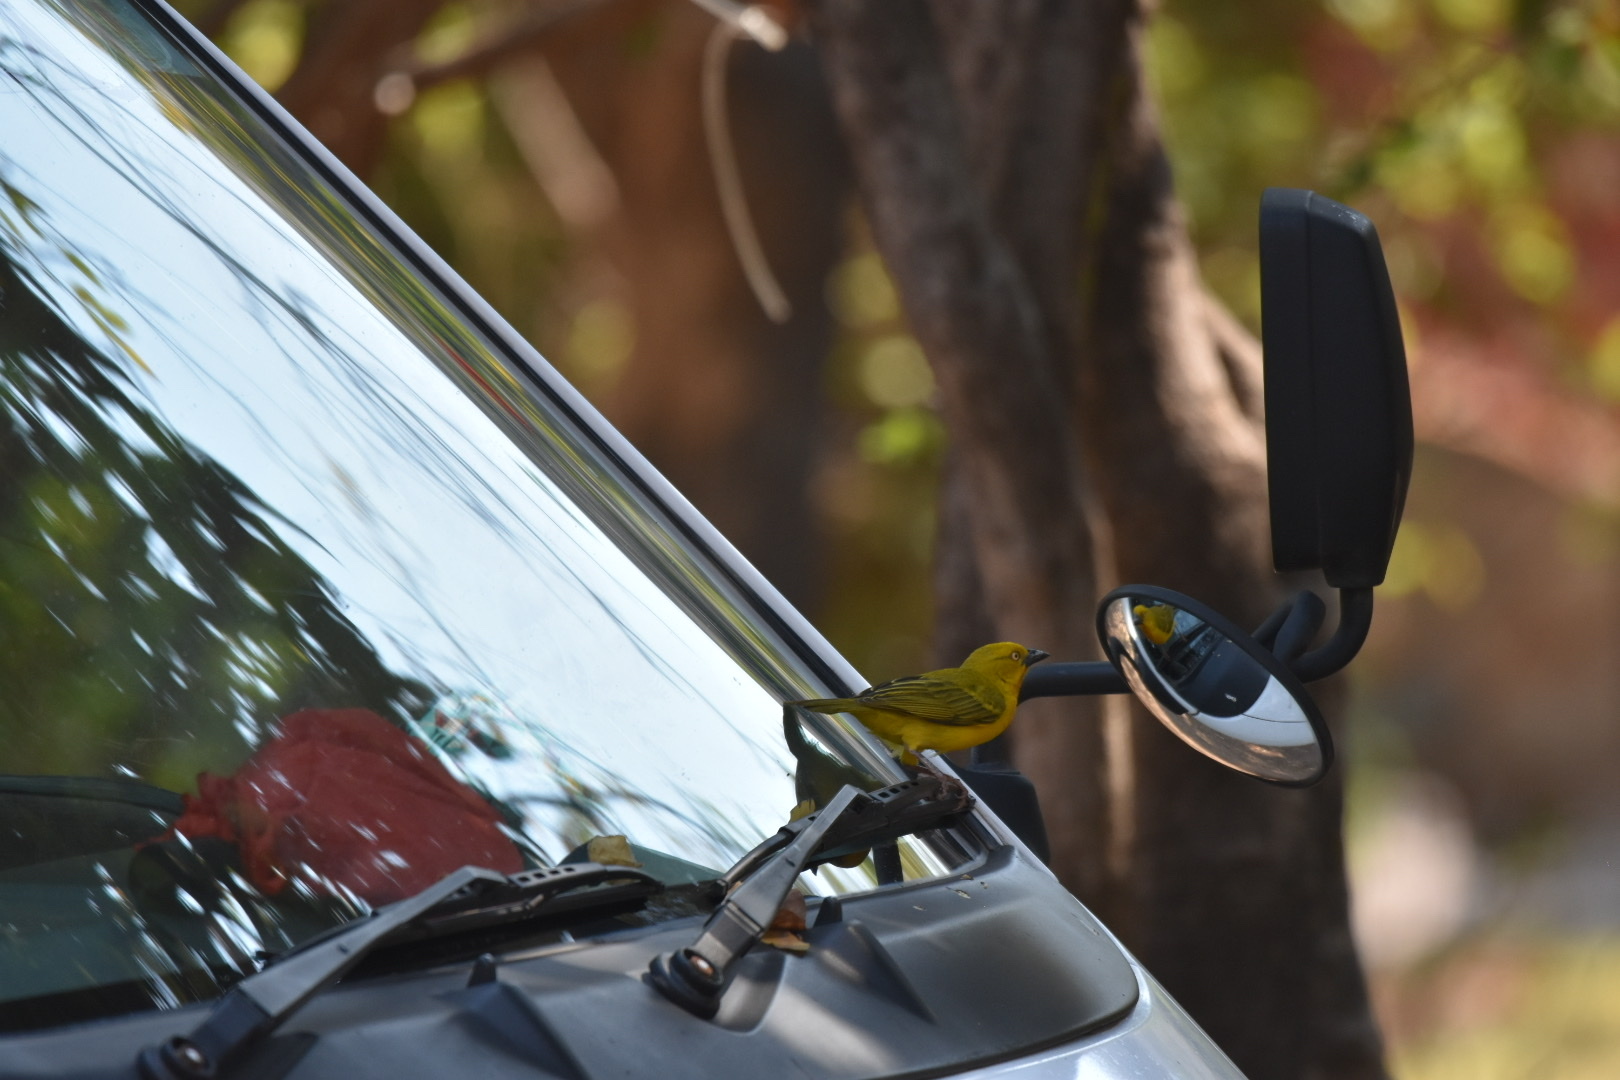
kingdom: Animalia
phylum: Chordata
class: Aves
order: Passeriformes
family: Ploceidae
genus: Ploceus
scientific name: Ploceus xanthops
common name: Holub's golden weaver
